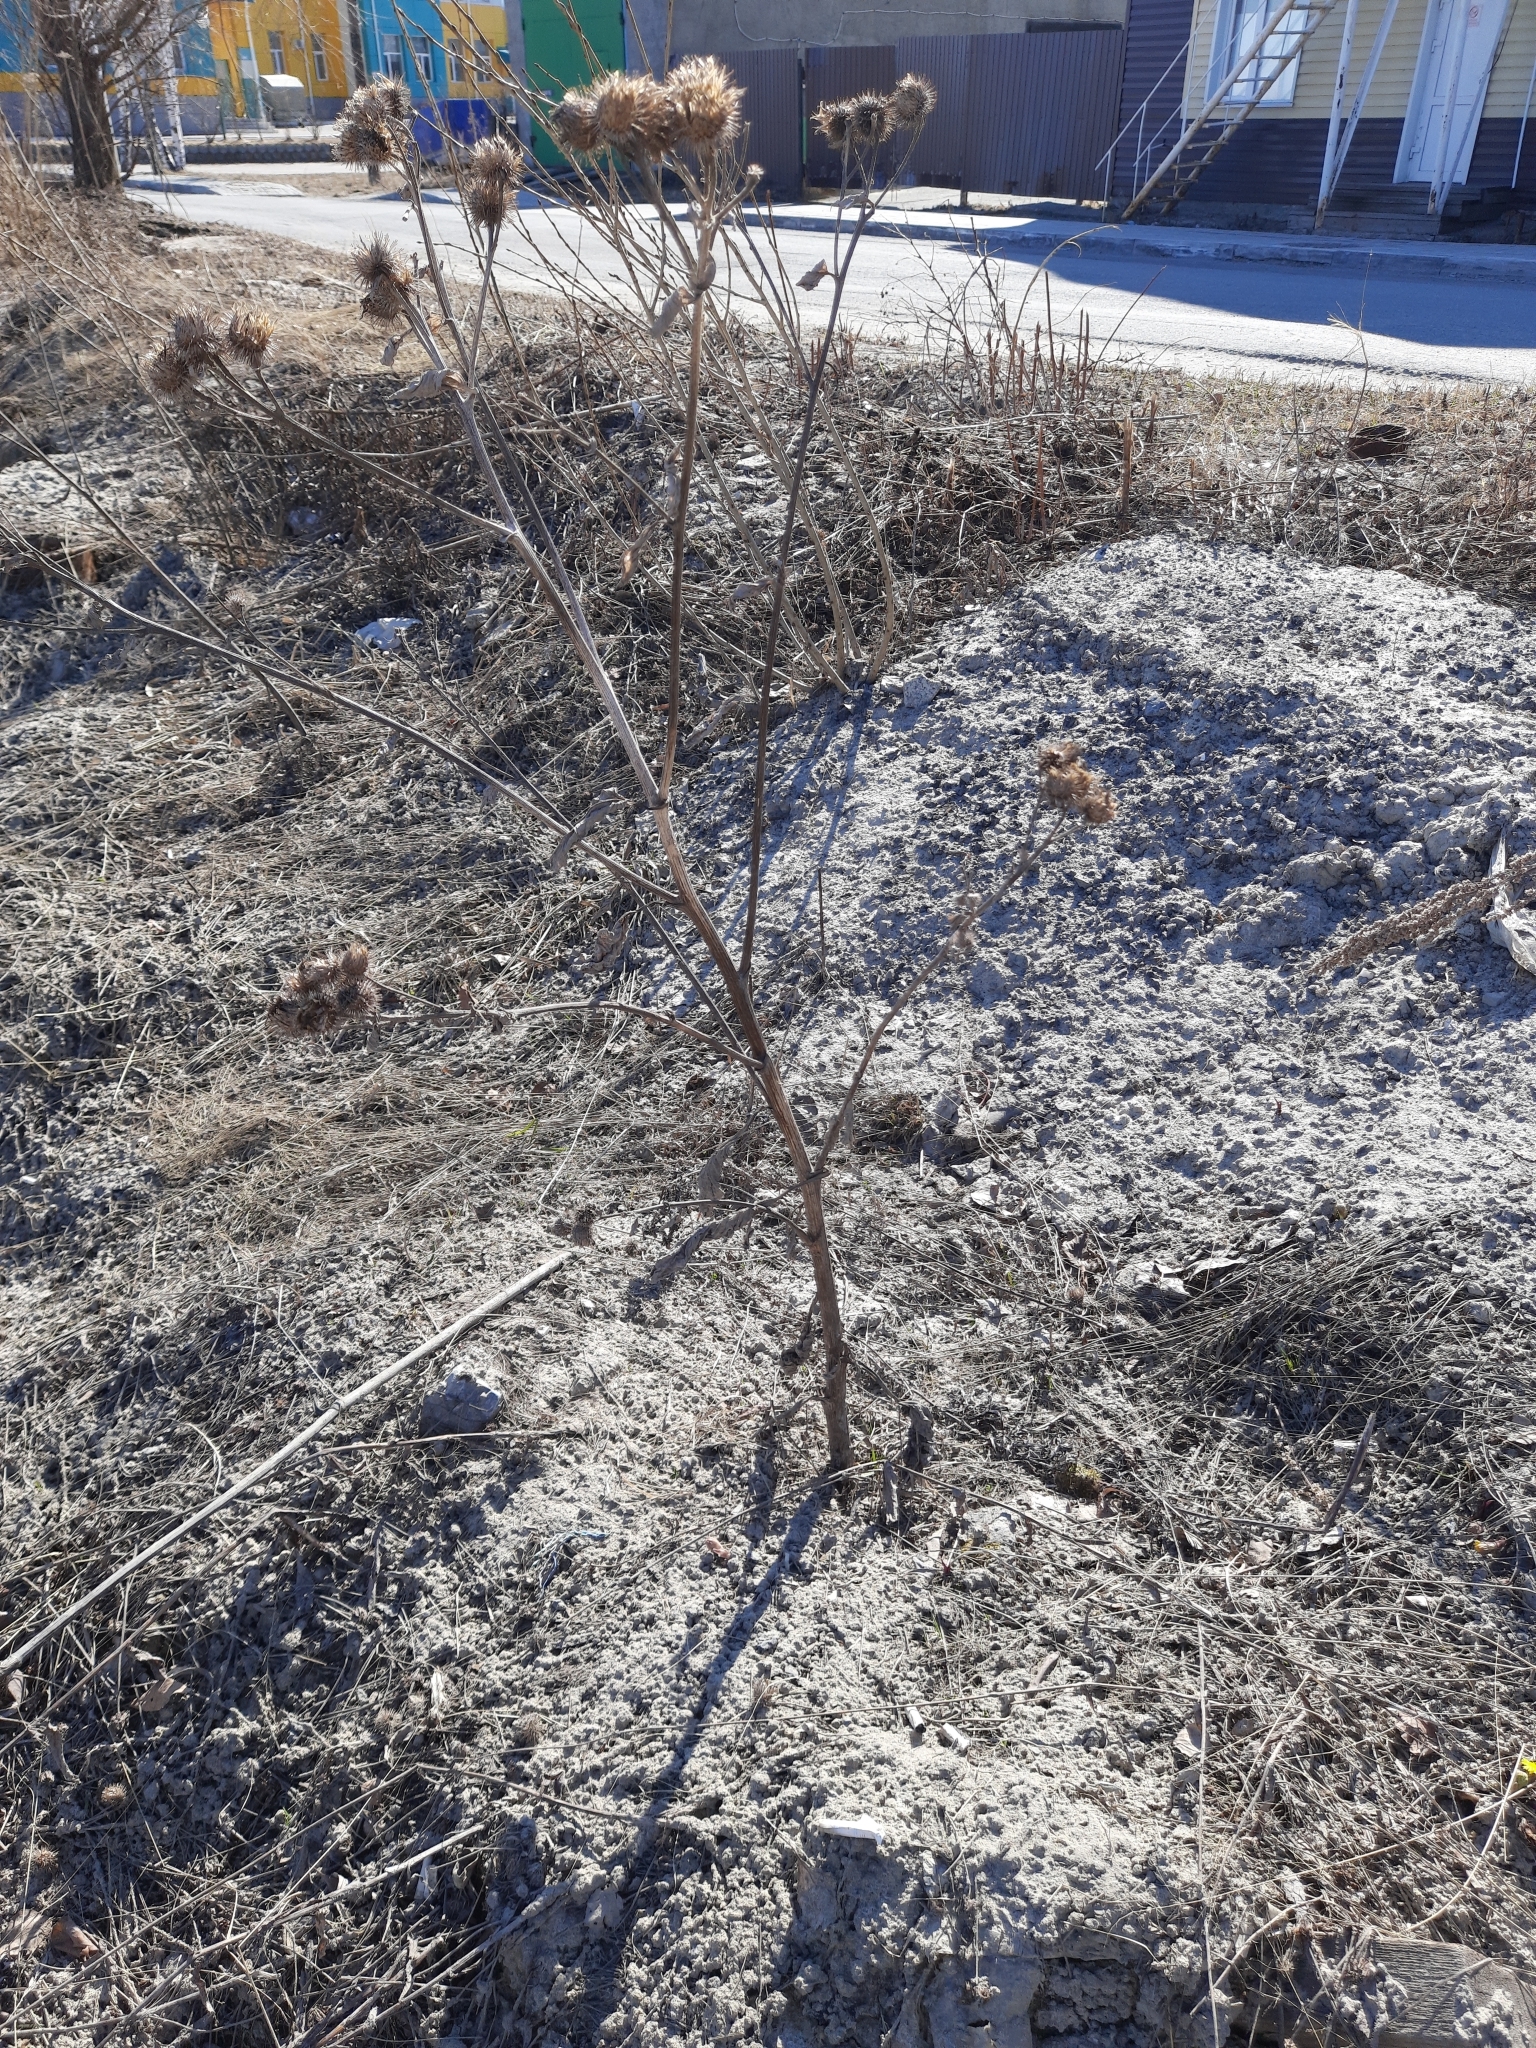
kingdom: Plantae
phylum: Tracheophyta
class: Magnoliopsida
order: Asterales
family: Asteraceae
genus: Arctium
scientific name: Arctium tomentosum
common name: Woolly burdock
